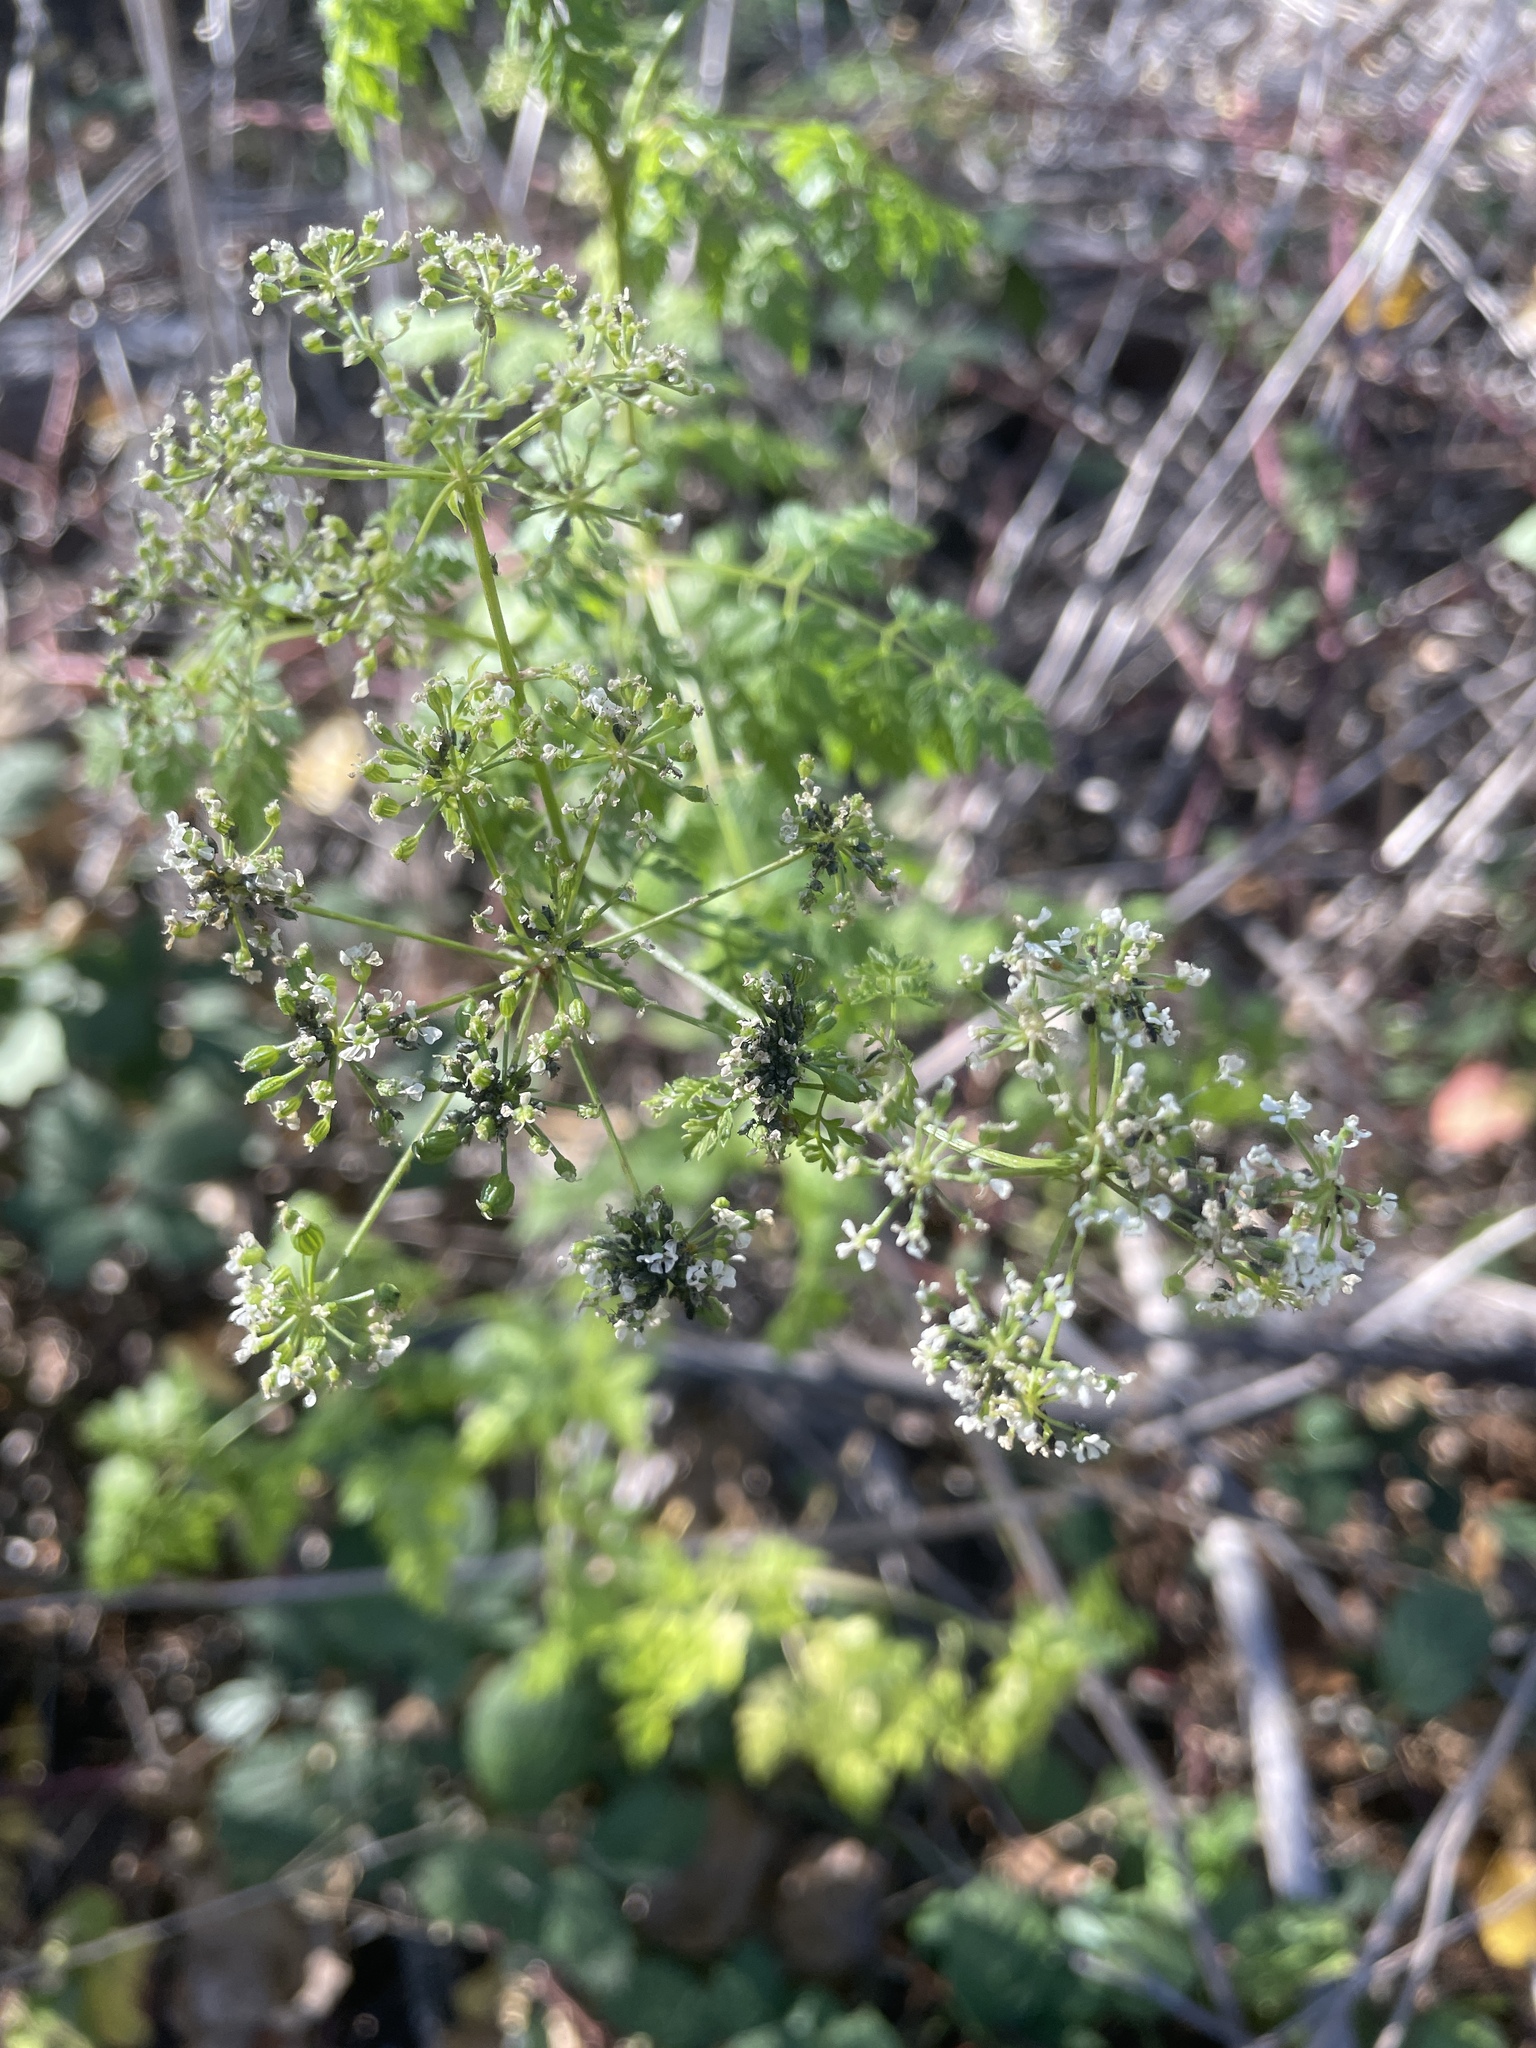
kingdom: Plantae
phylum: Tracheophyta
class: Magnoliopsida
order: Apiales
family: Apiaceae
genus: Conium
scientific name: Conium maculatum
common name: Hemlock
